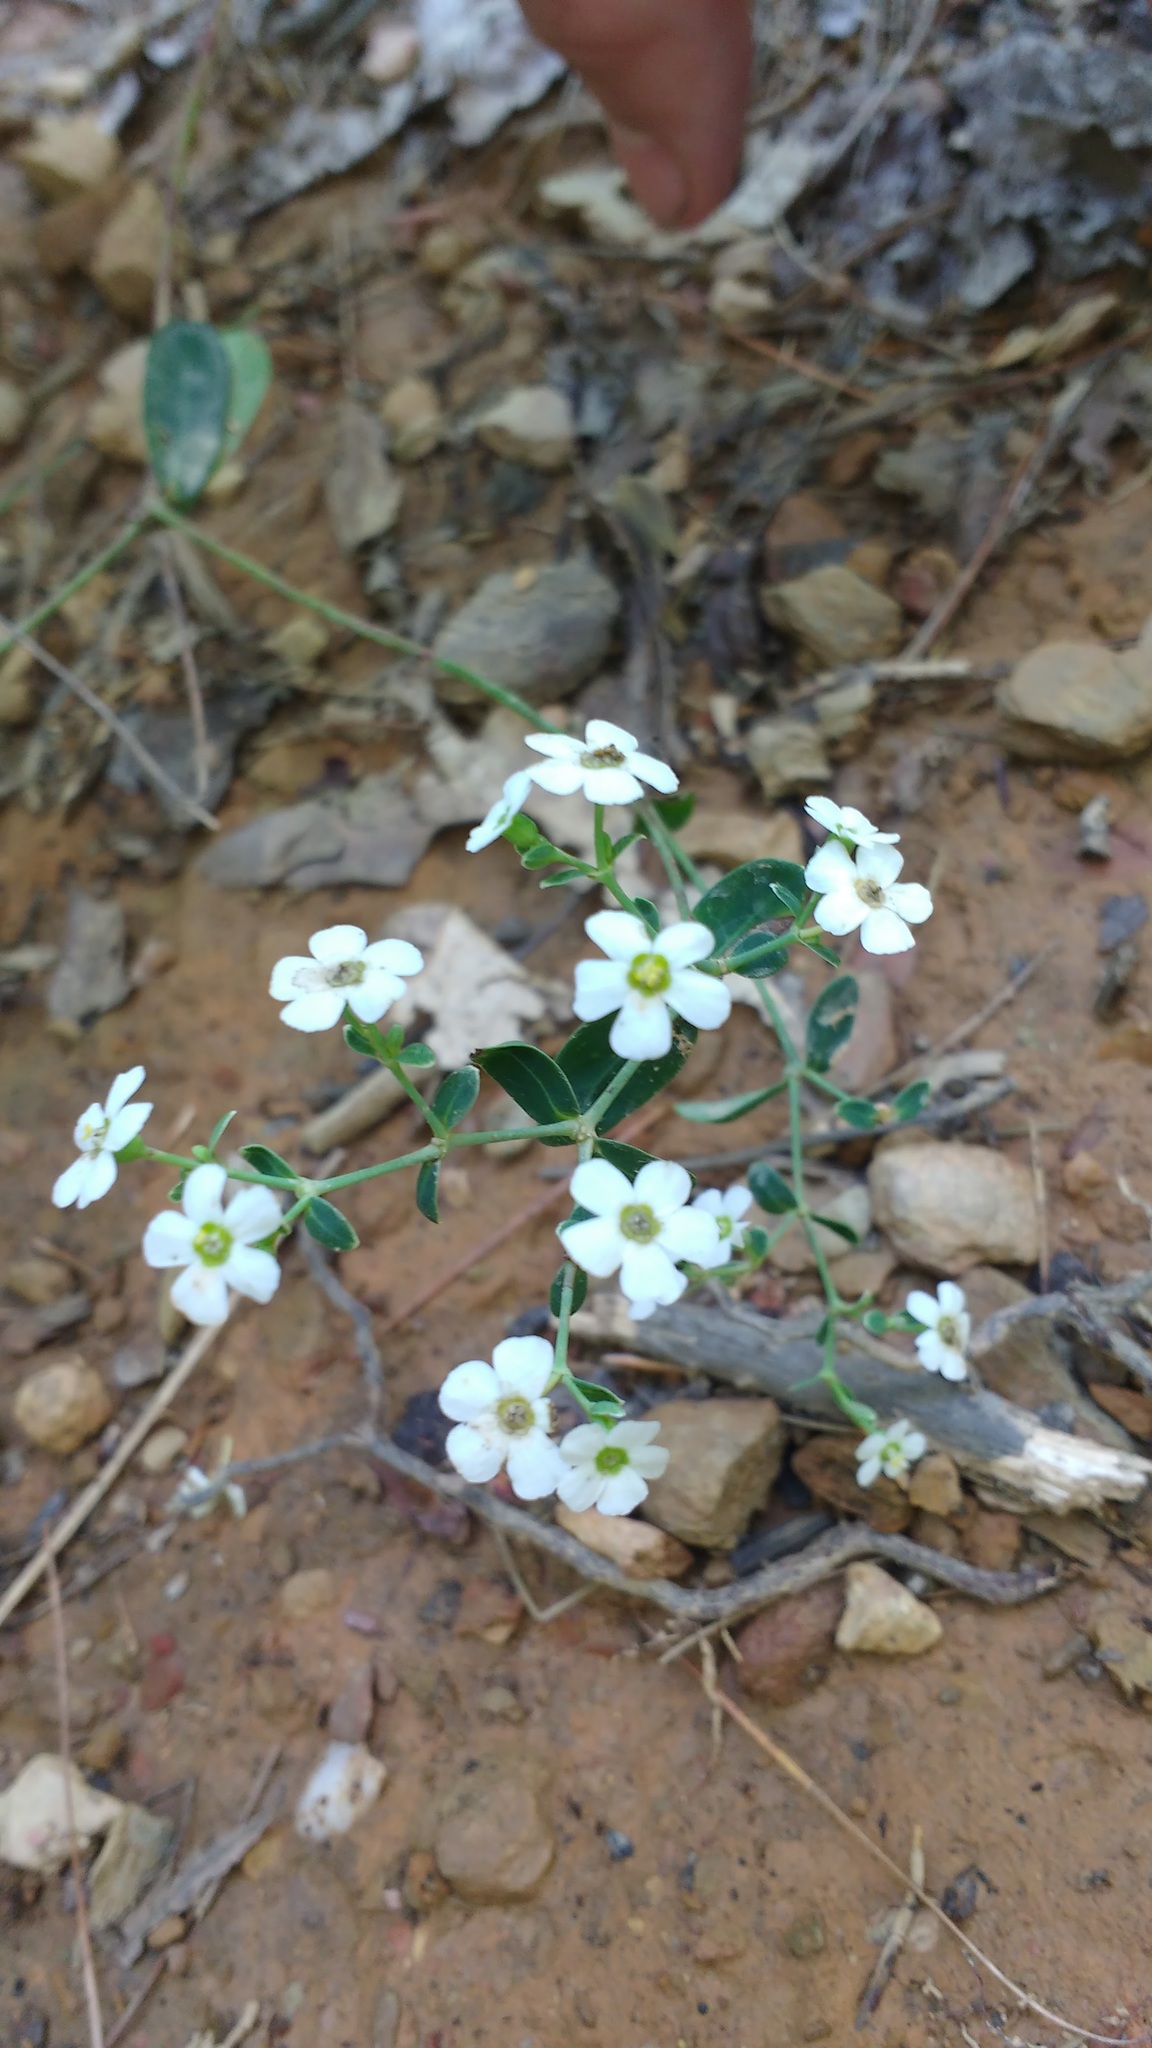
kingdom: Plantae
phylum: Tracheophyta
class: Magnoliopsida
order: Malpighiales
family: Euphorbiaceae
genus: Euphorbia
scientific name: Euphorbia corollata
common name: Flowering spurge
